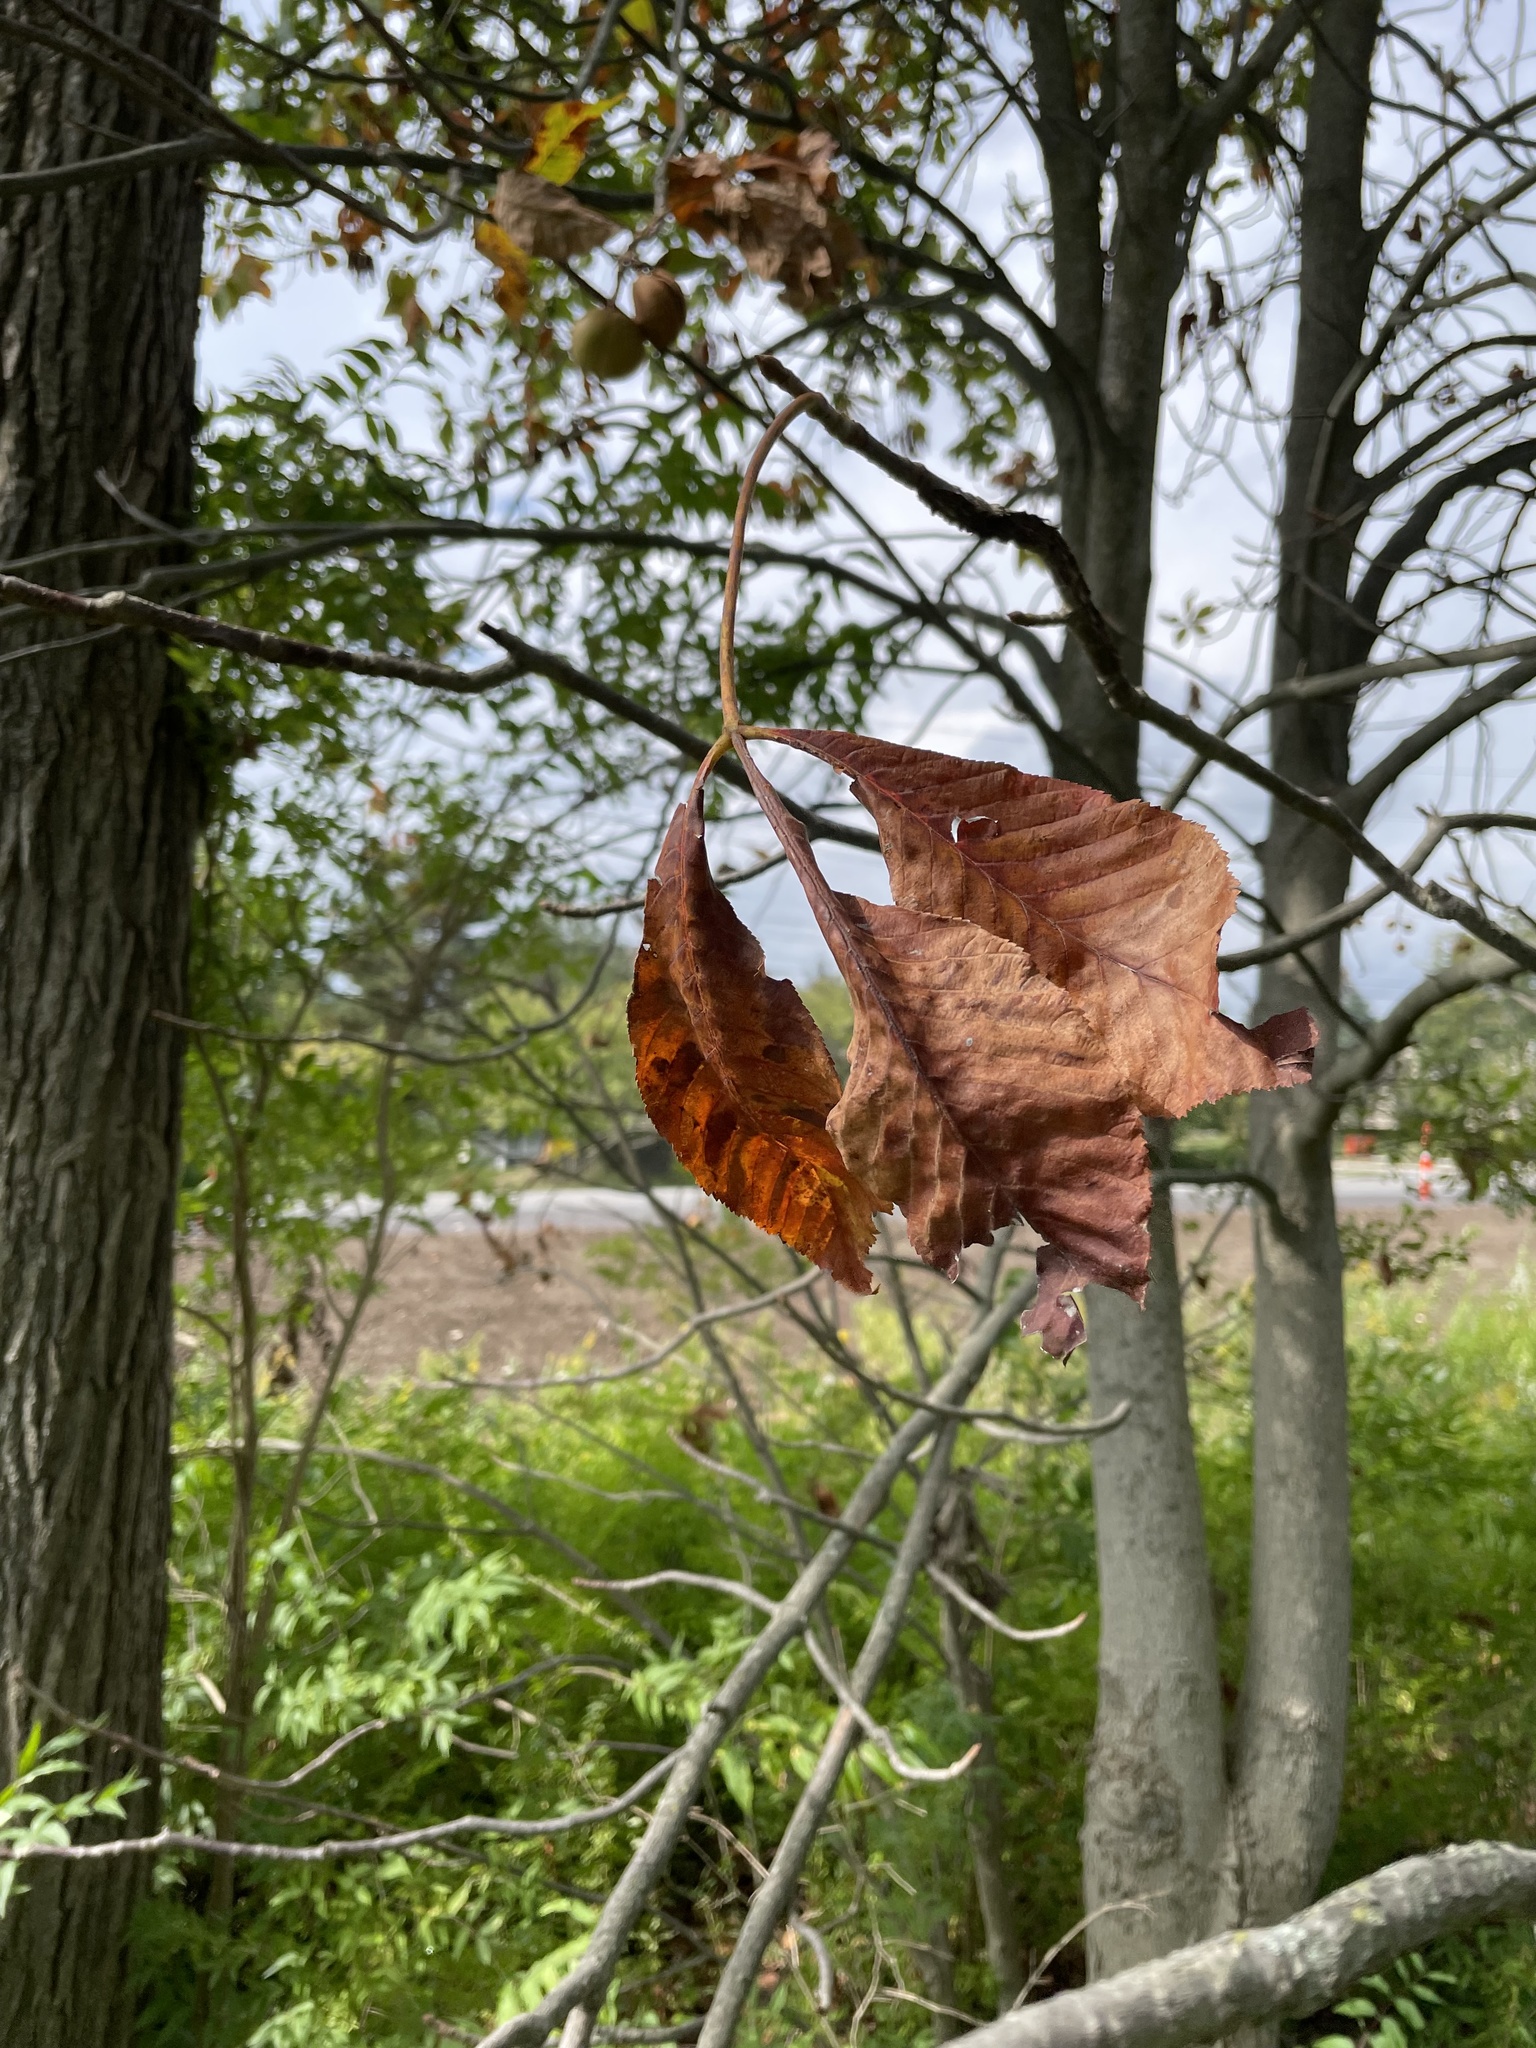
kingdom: Plantae
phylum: Tracheophyta
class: Magnoliopsida
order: Sapindales
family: Sapindaceae
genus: Aesculus
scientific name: Aesculus glabra
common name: Ohio buckeye
